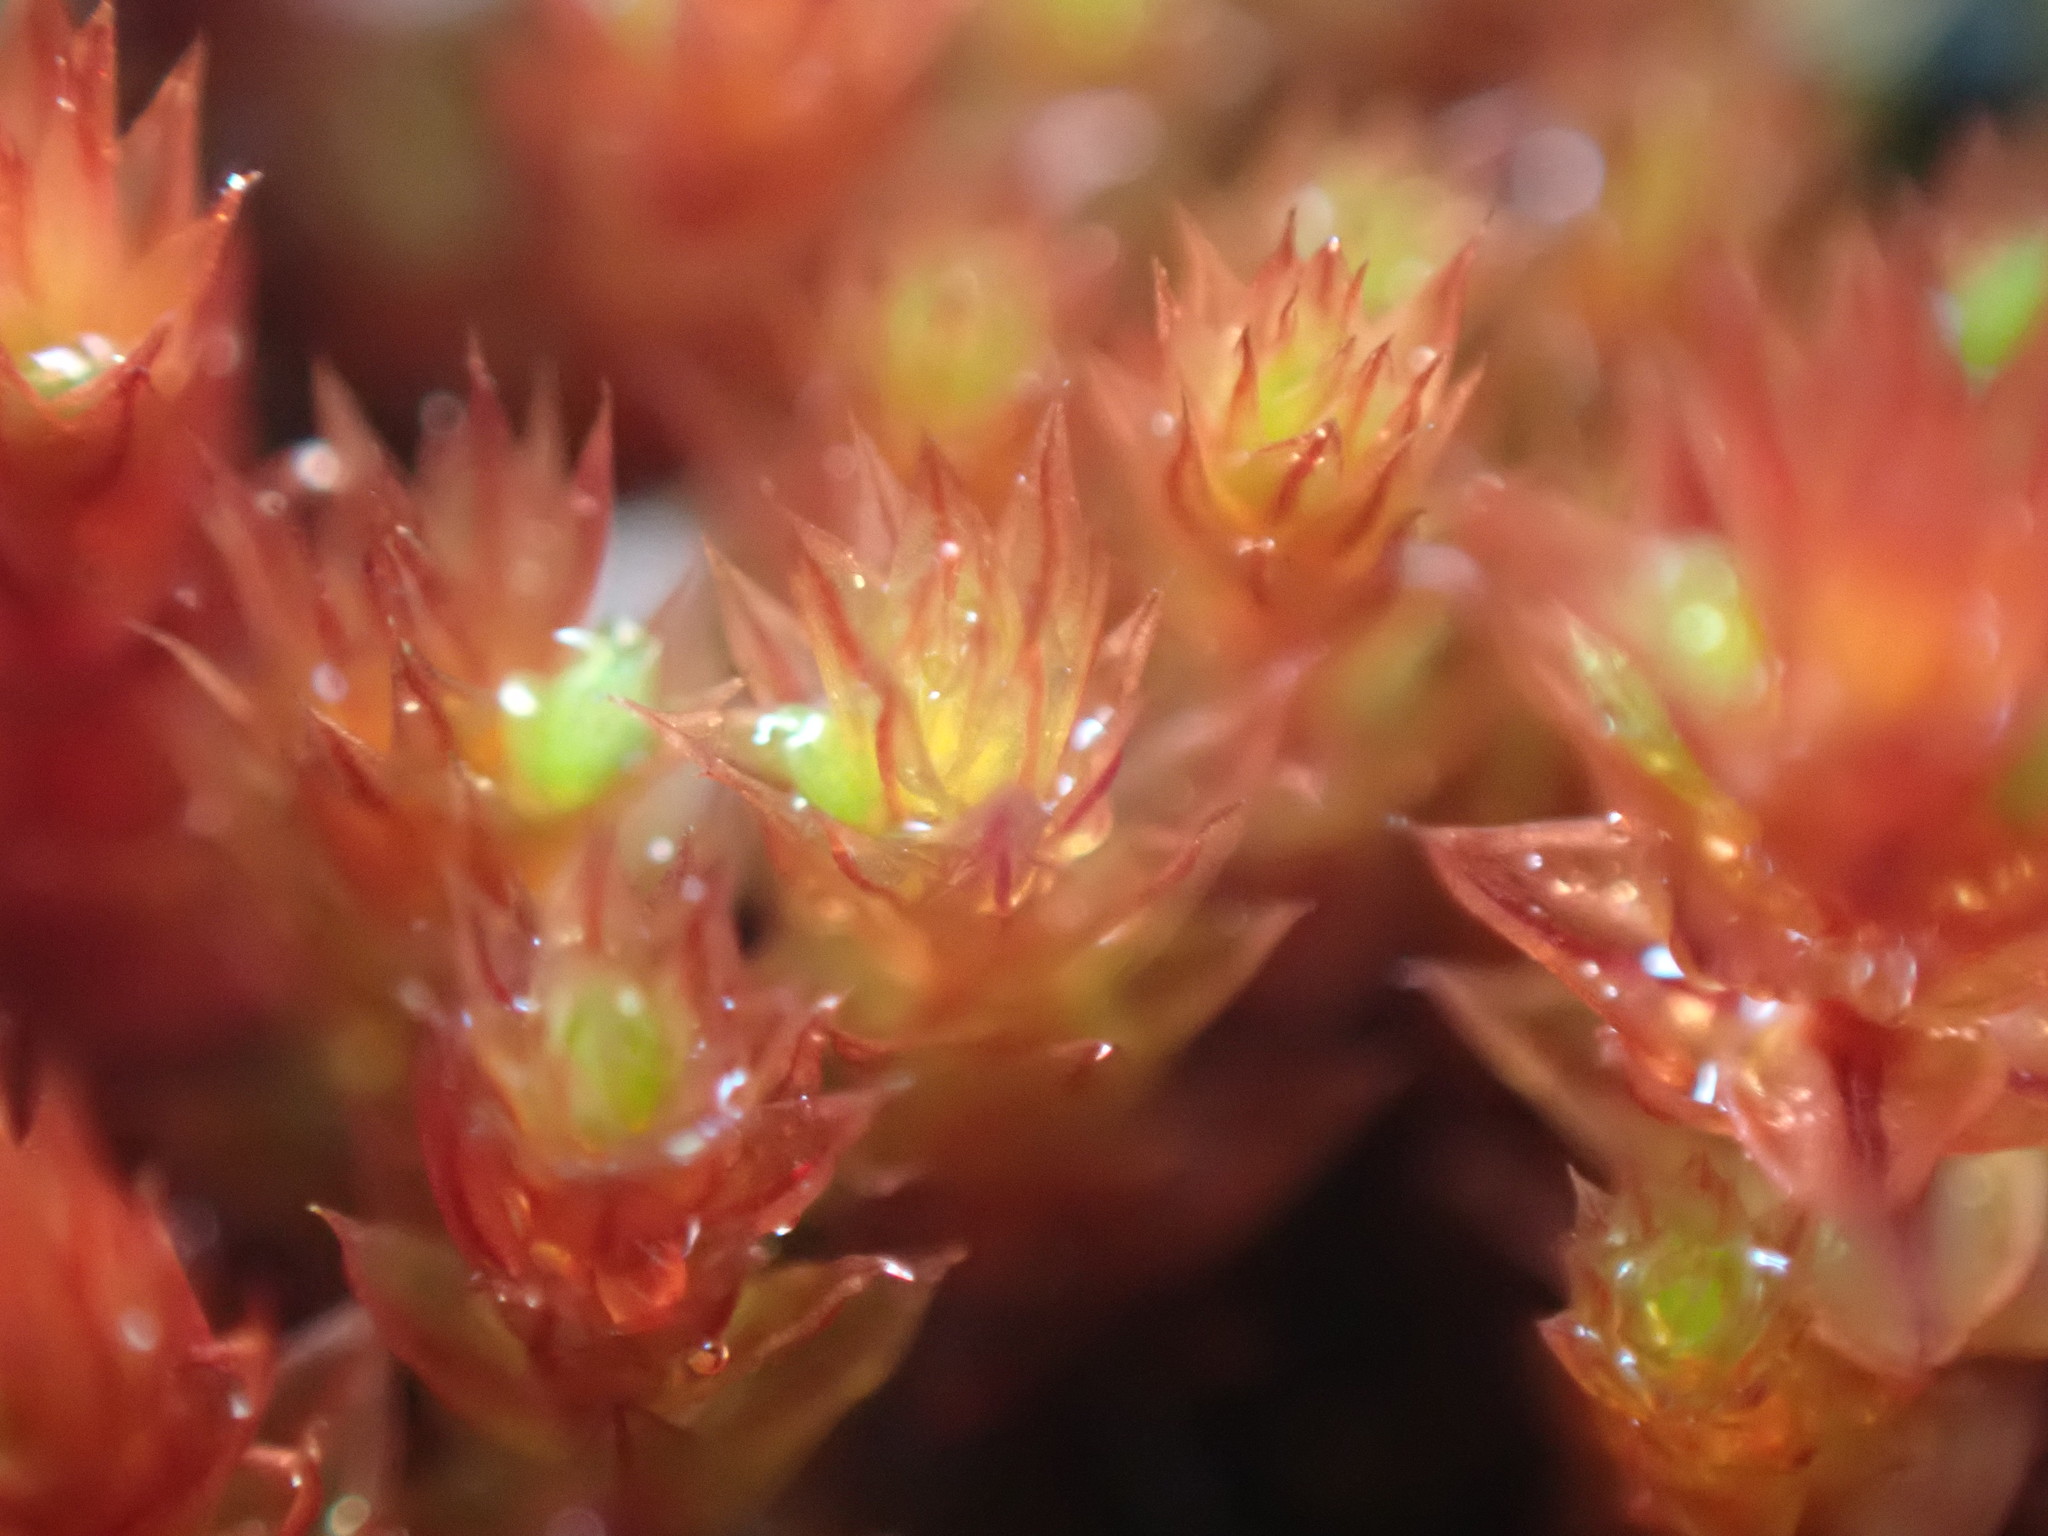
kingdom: Plantae
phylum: Bryophyta
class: Bryopsida
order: Bryales
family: Bryaceae
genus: Imbribryum
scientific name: Imbribryum torenii
